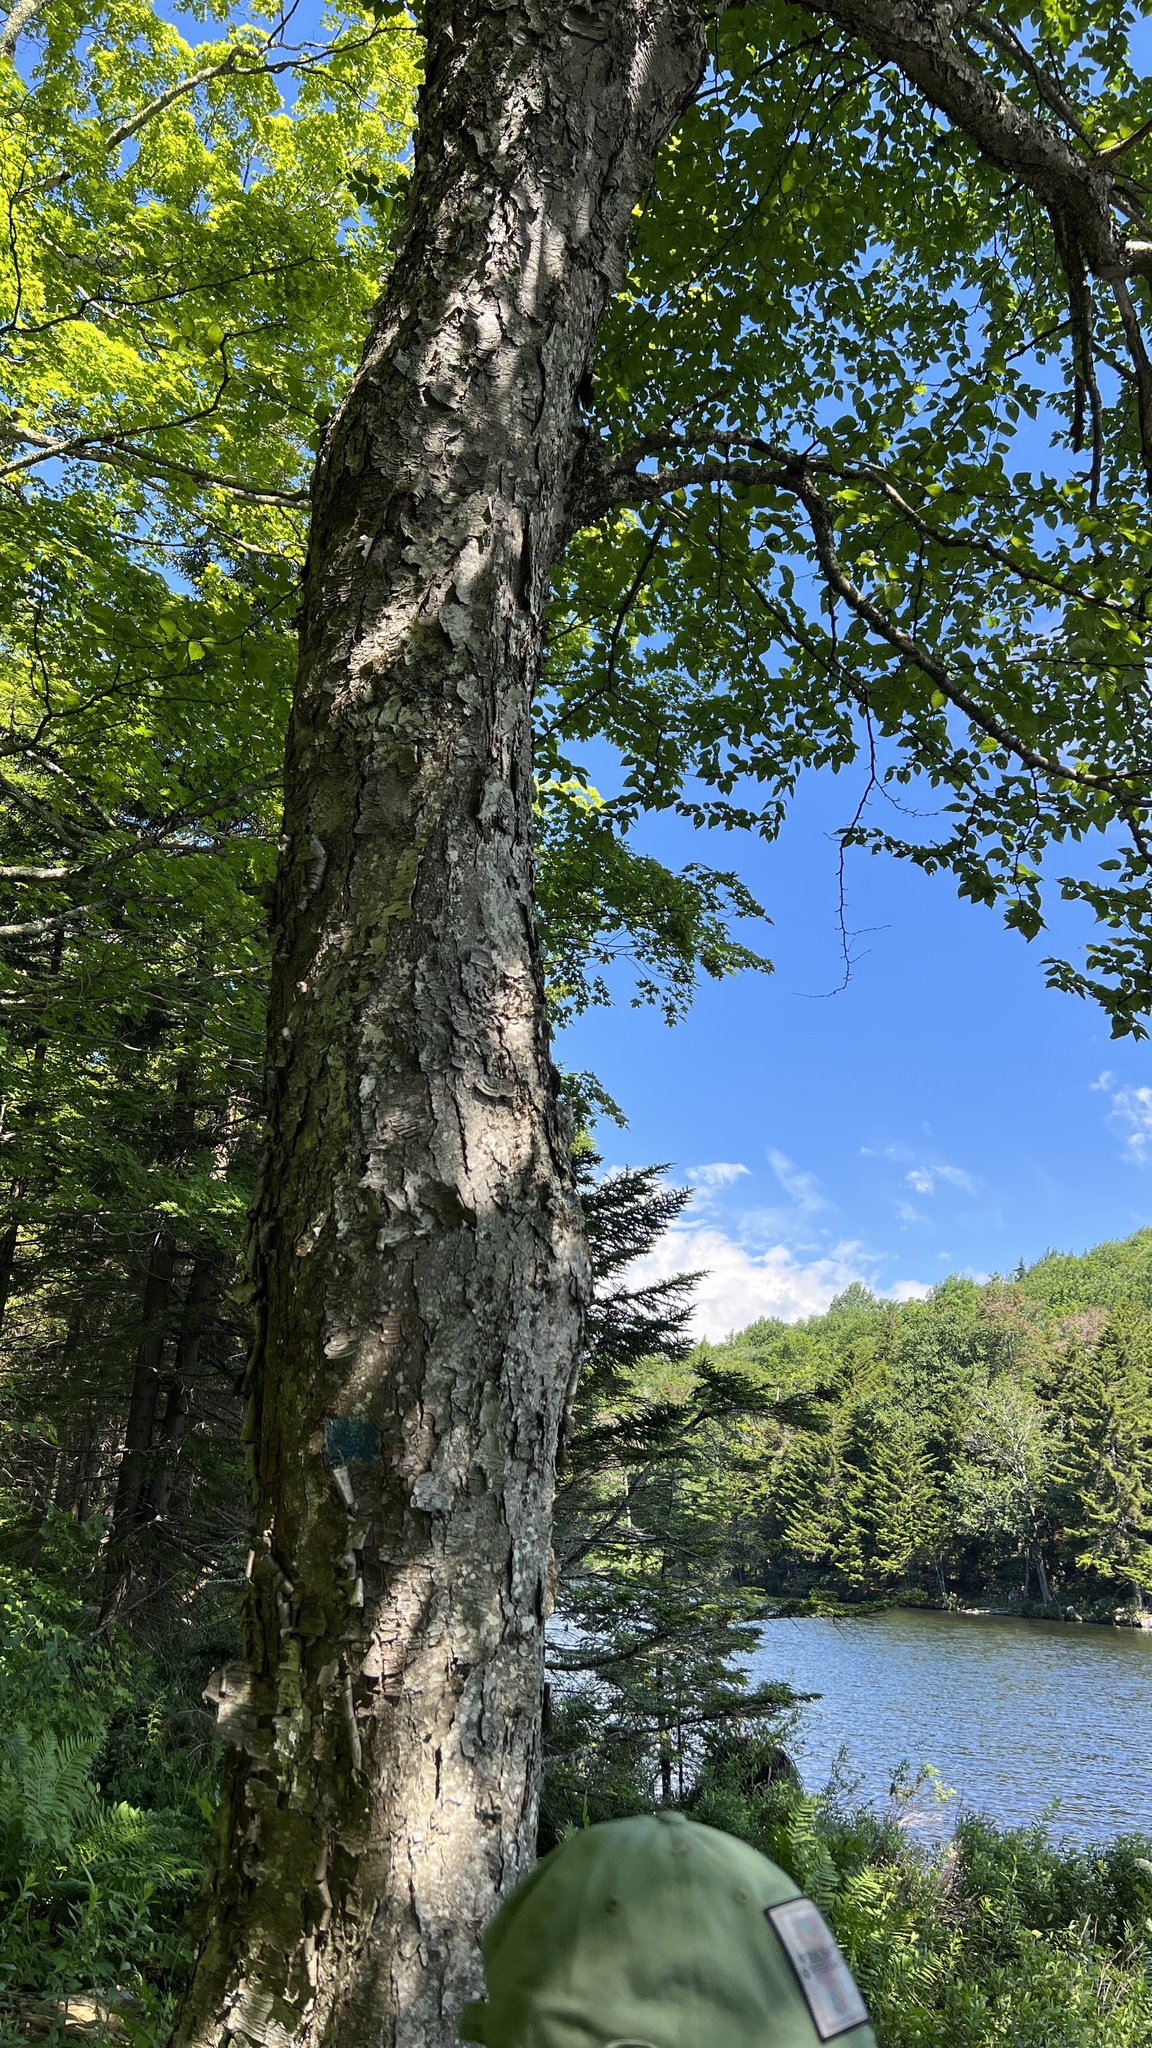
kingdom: Plantae
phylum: Tracheophyta
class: Magnoliopsida
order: Fagales
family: Betulaceae
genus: Betula
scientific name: Betula alleghaniensis
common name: Yellow birch
